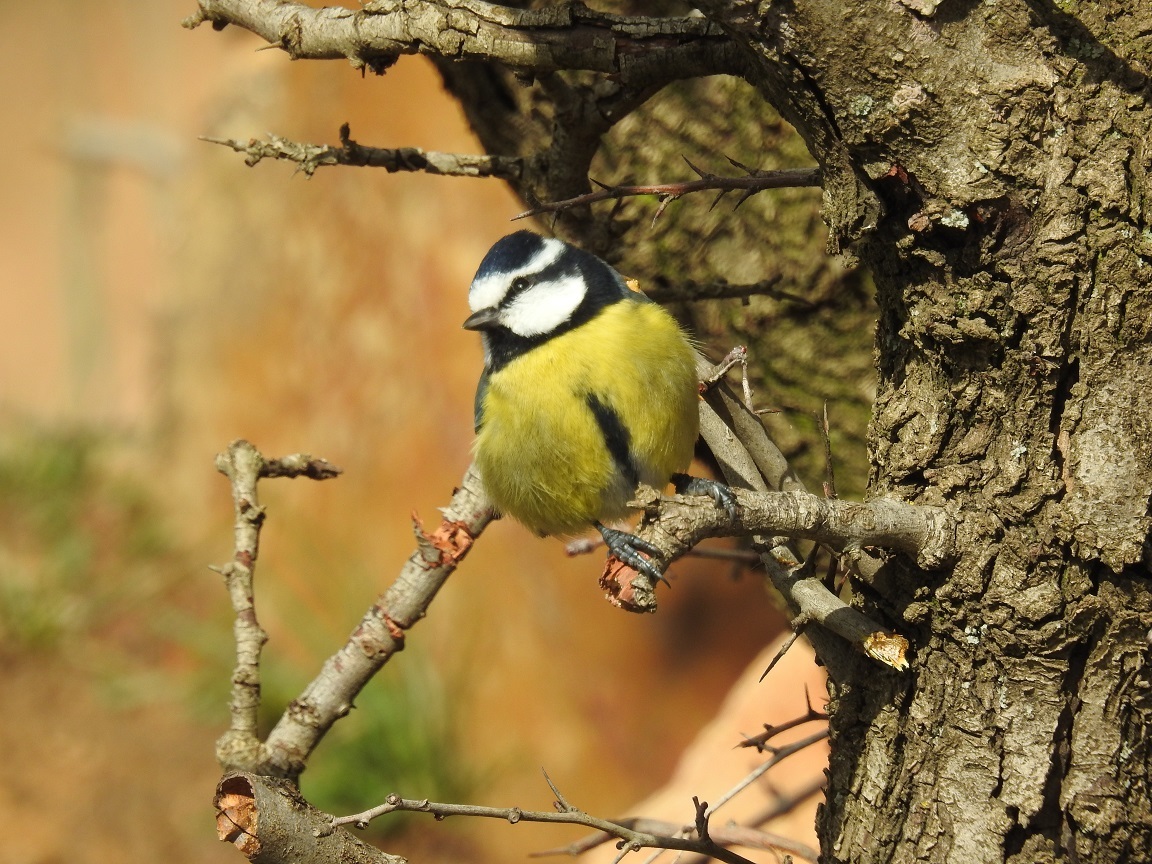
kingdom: Animalia
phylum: Chordata
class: Aves
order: Passeriformes
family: Paridae
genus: Cyanistes
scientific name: Cyanistes teneriffae
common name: African blue tit
